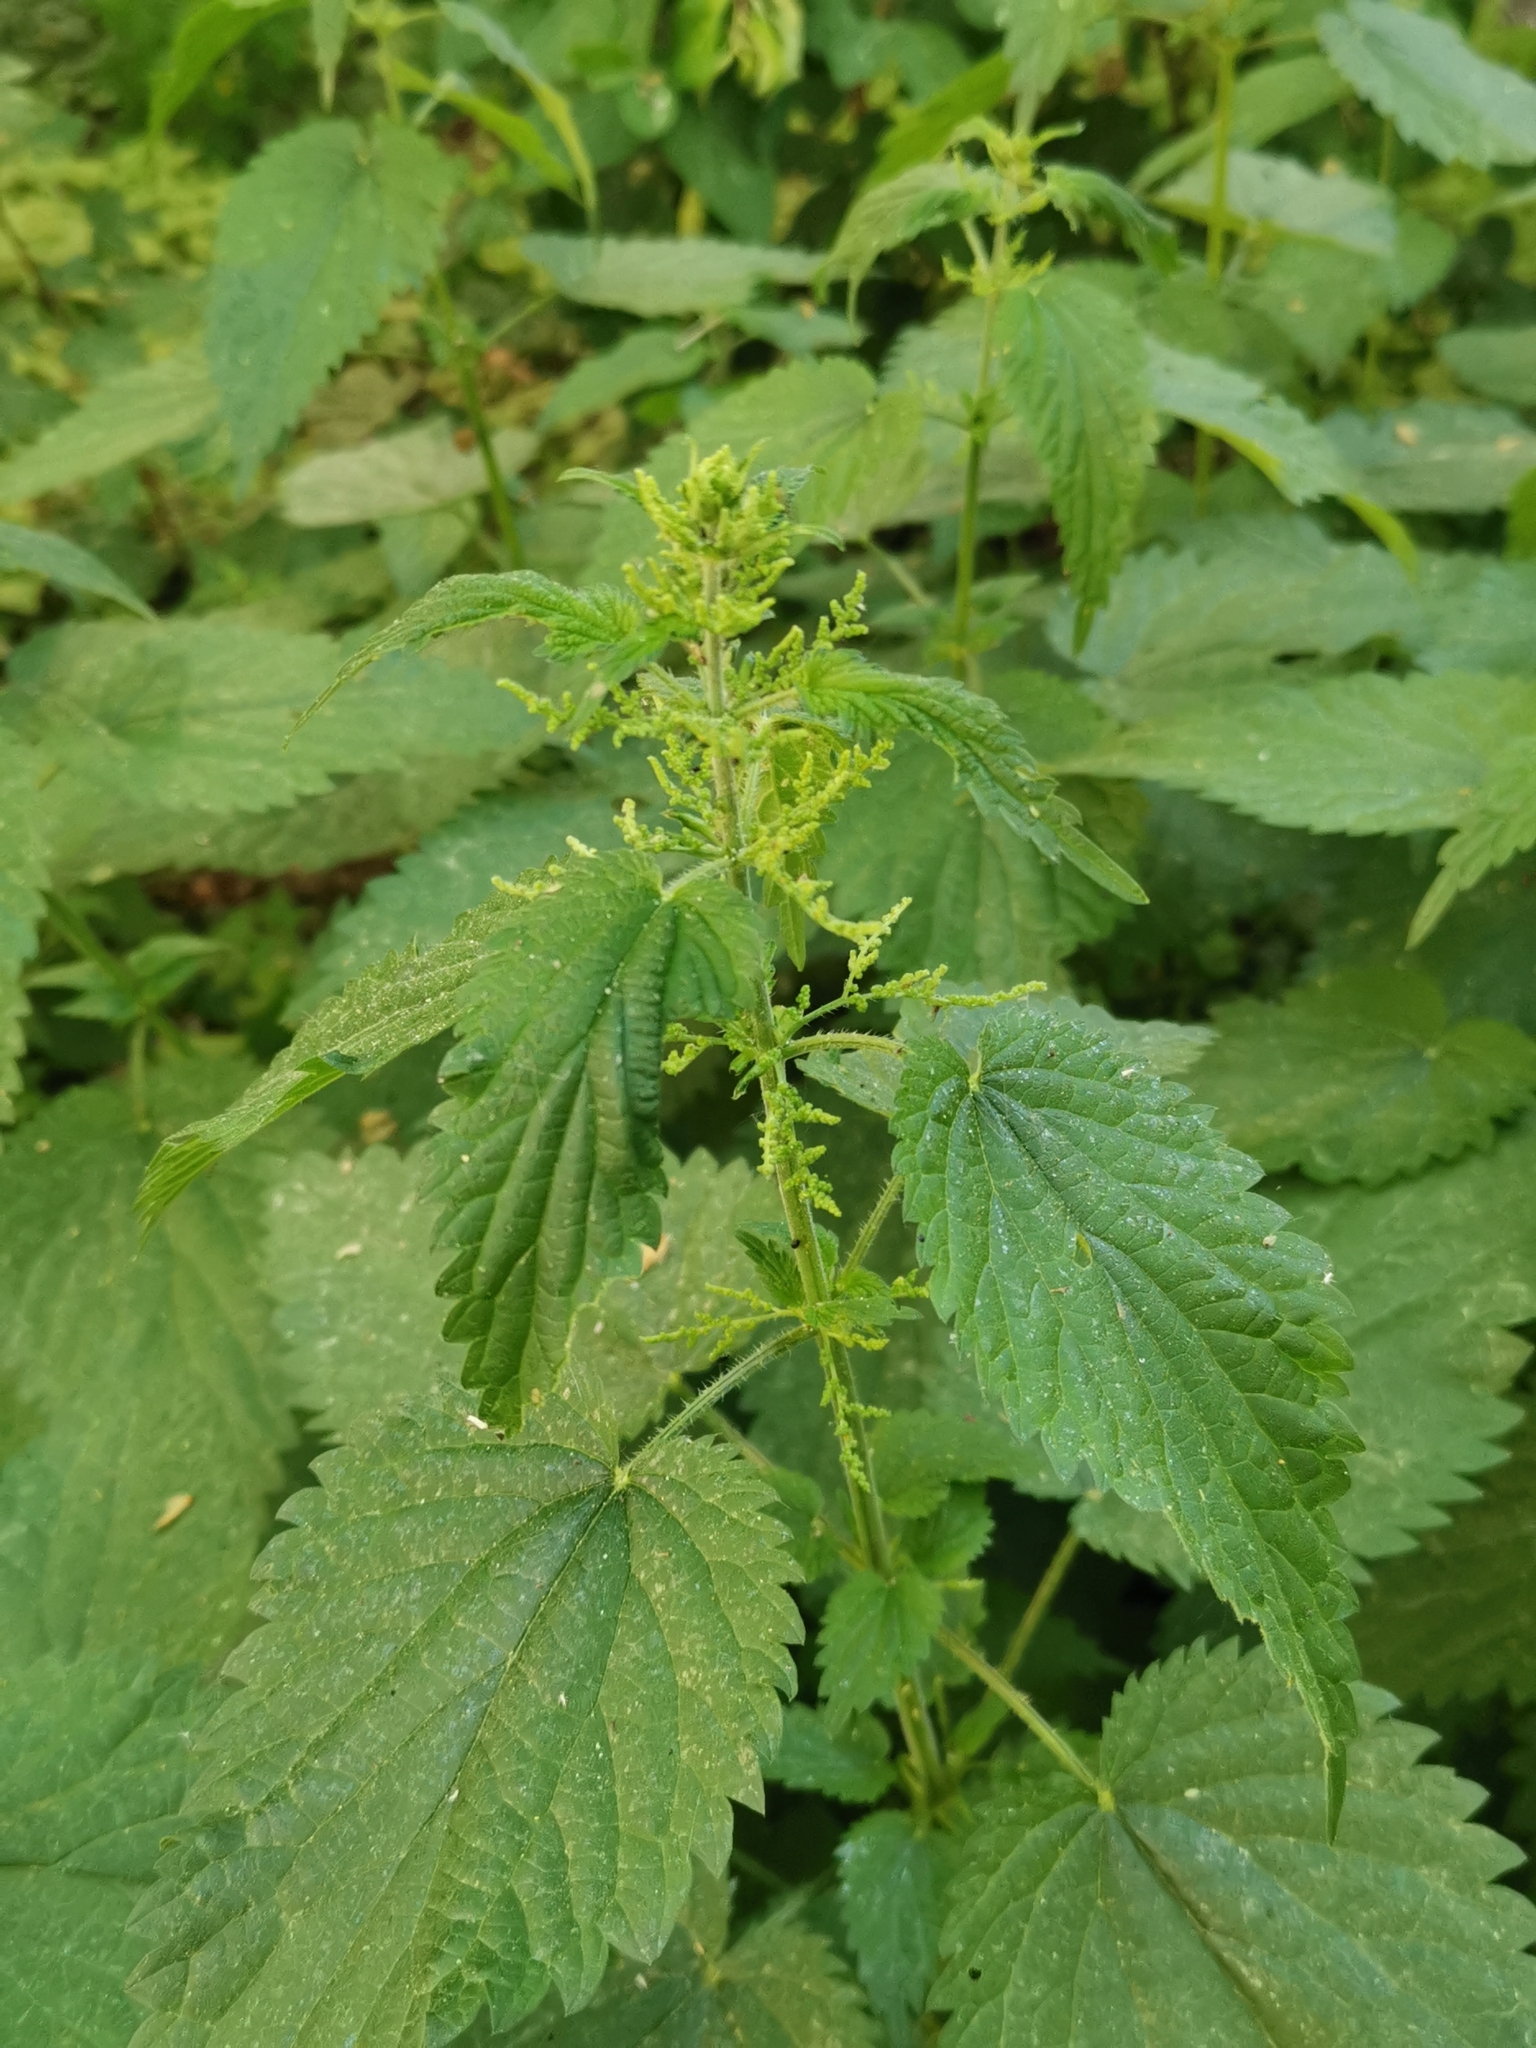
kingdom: Plantae
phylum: Tracheophyta
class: Magnoliopsida
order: Rosales
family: Urticaceae
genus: Urtica
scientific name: Urtica dioica
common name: Common nettle
